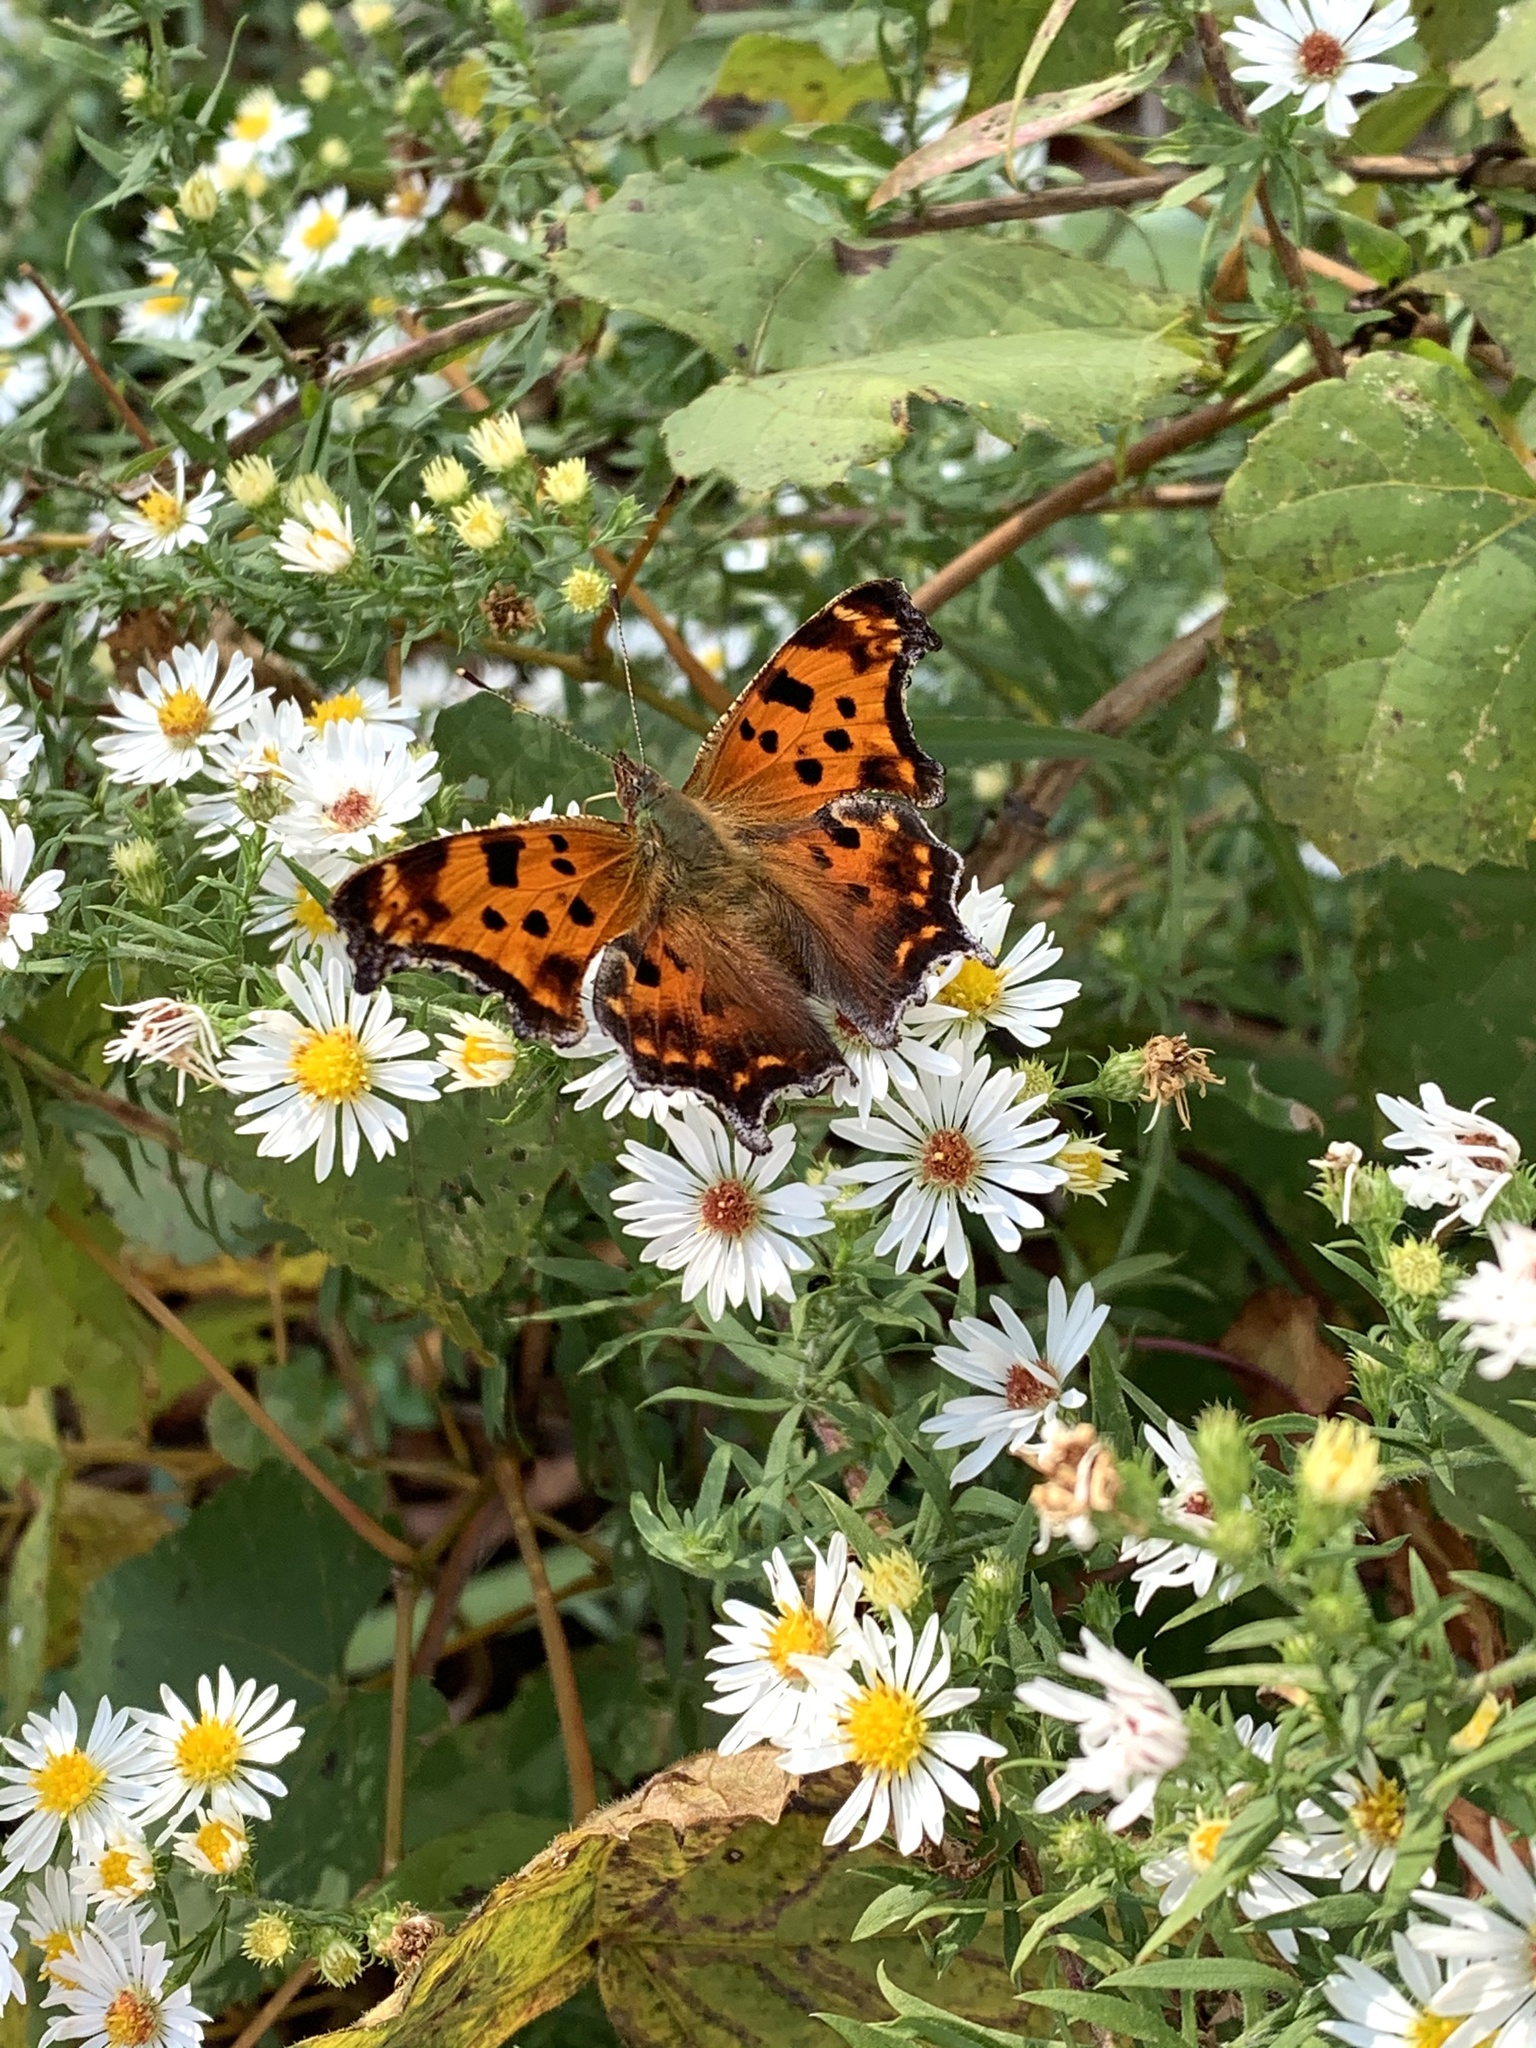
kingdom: Animalia
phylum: Arthropoda
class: Insecta
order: Lepidoptera
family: Nymphalidae
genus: Polygonia
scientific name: Polygonia comma
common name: Eastern comma
